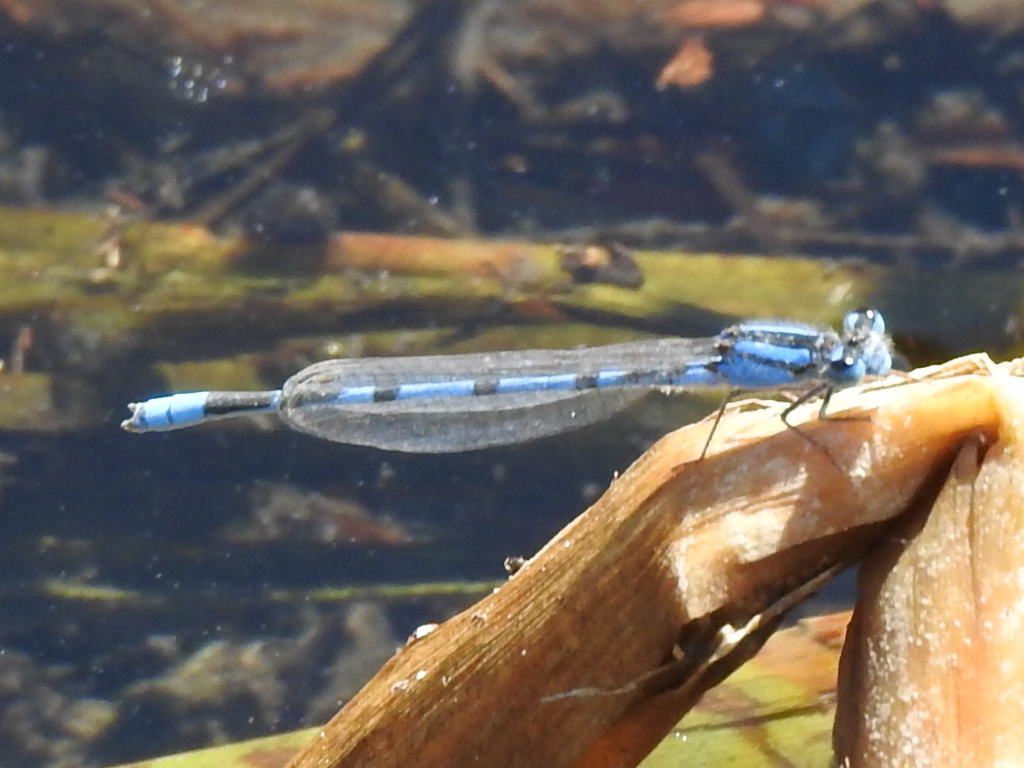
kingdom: Animalia
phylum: Arthropoda
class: Insecta
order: Odonata
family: Coenagrionidae
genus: Enallagma
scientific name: Enallagma civile
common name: Damselfly
